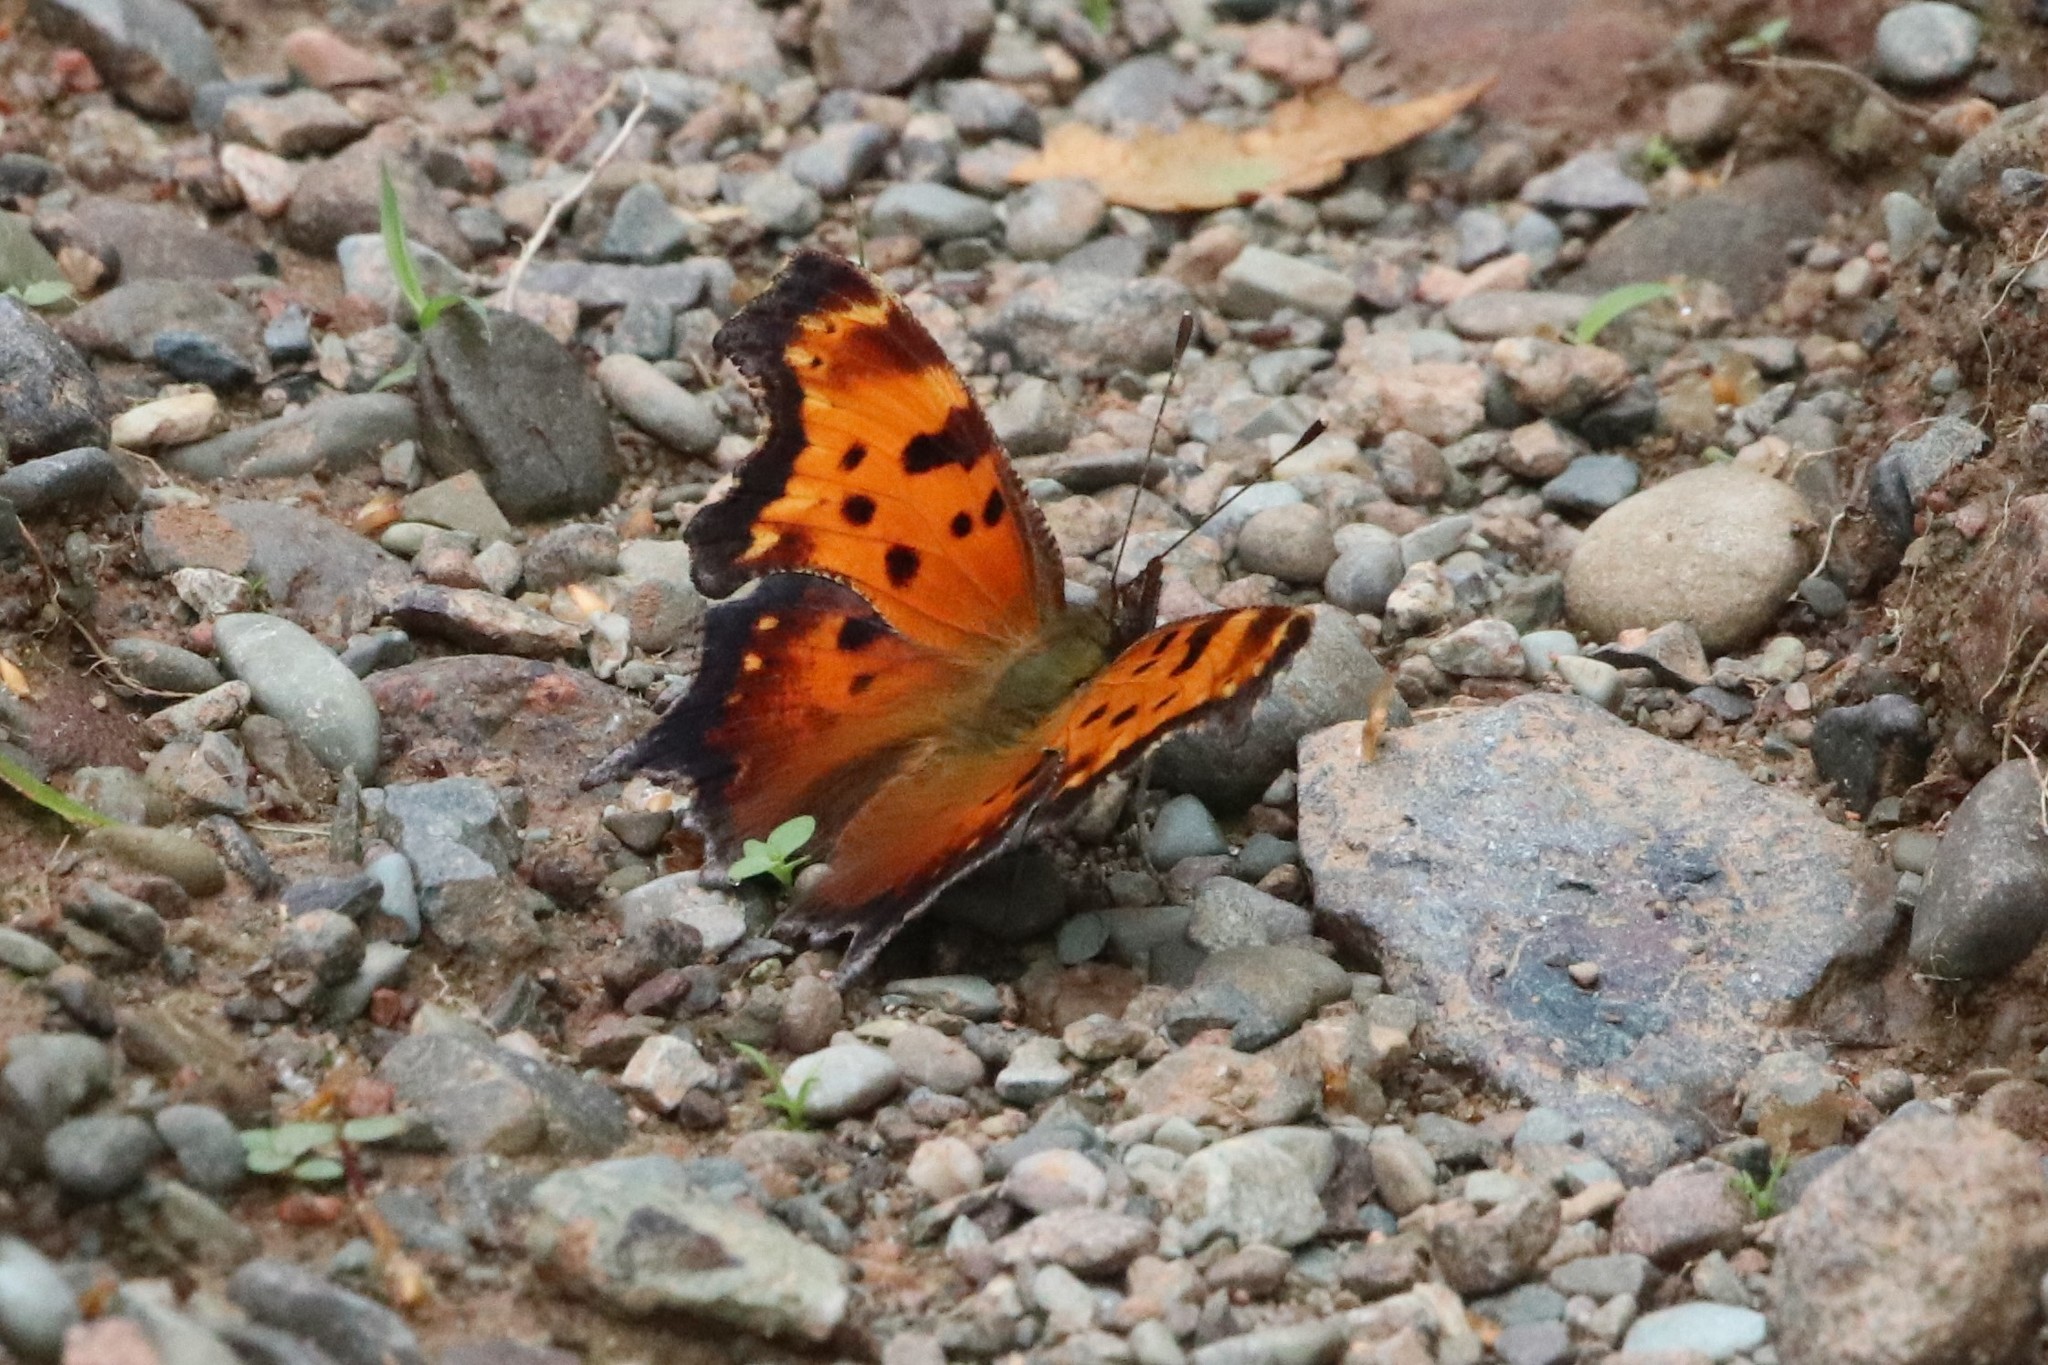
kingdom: Animalia
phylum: Arthropoda
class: Insecta
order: Lepidoptera
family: Nymphalidae
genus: Polygonia
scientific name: Polygonia progne
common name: Gray comma
